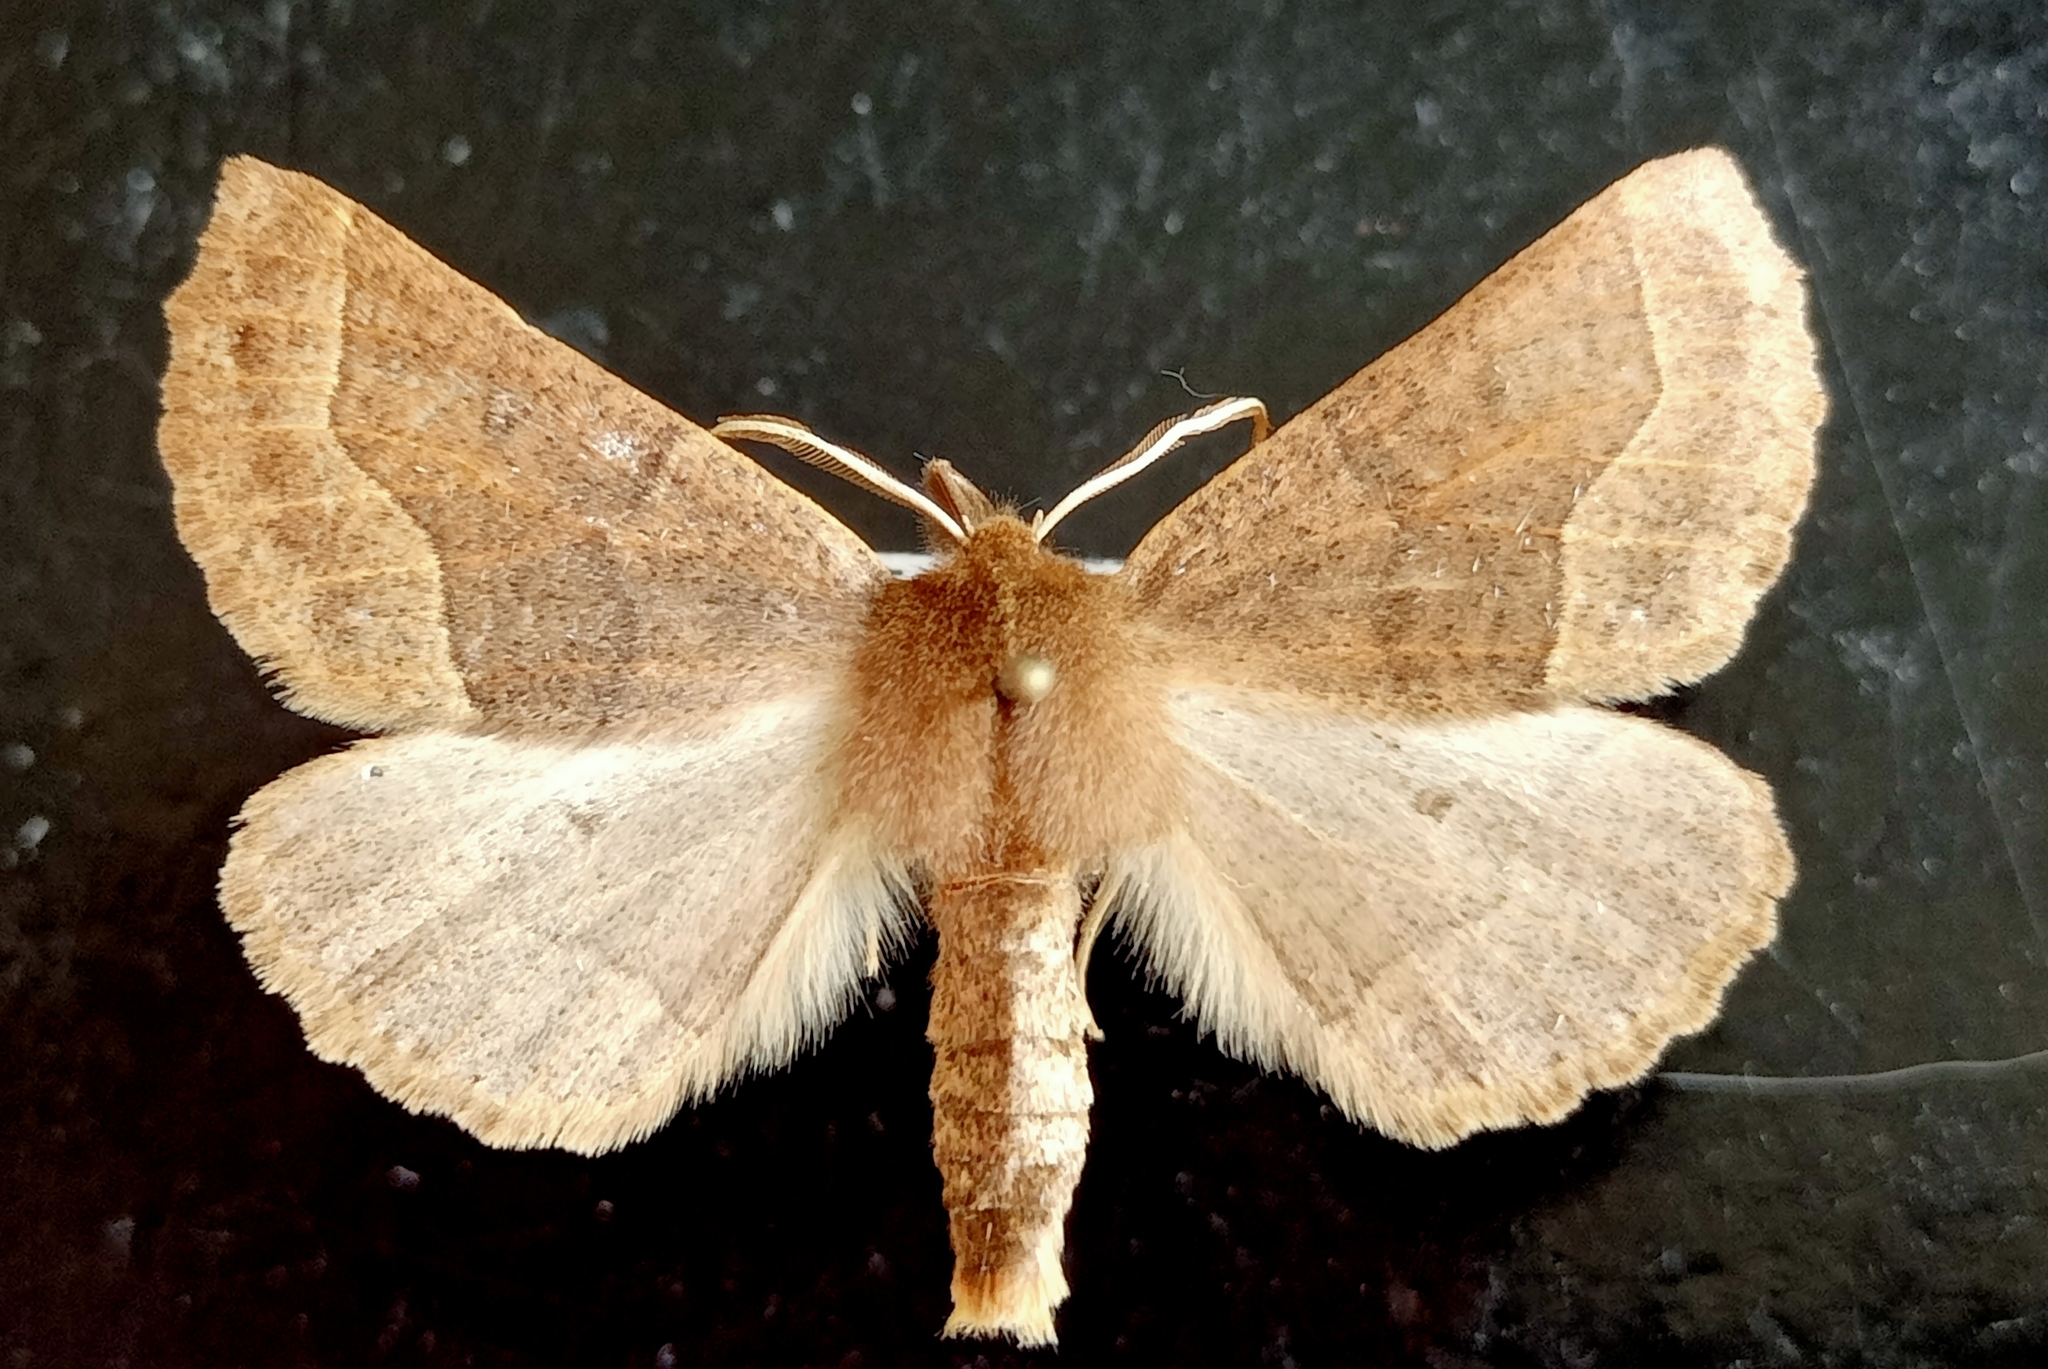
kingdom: Animalia
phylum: Arthropoda
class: Insecta
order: Lepidoptera
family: Geometridae
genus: Crocallis
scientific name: Crocallis tusciaria
